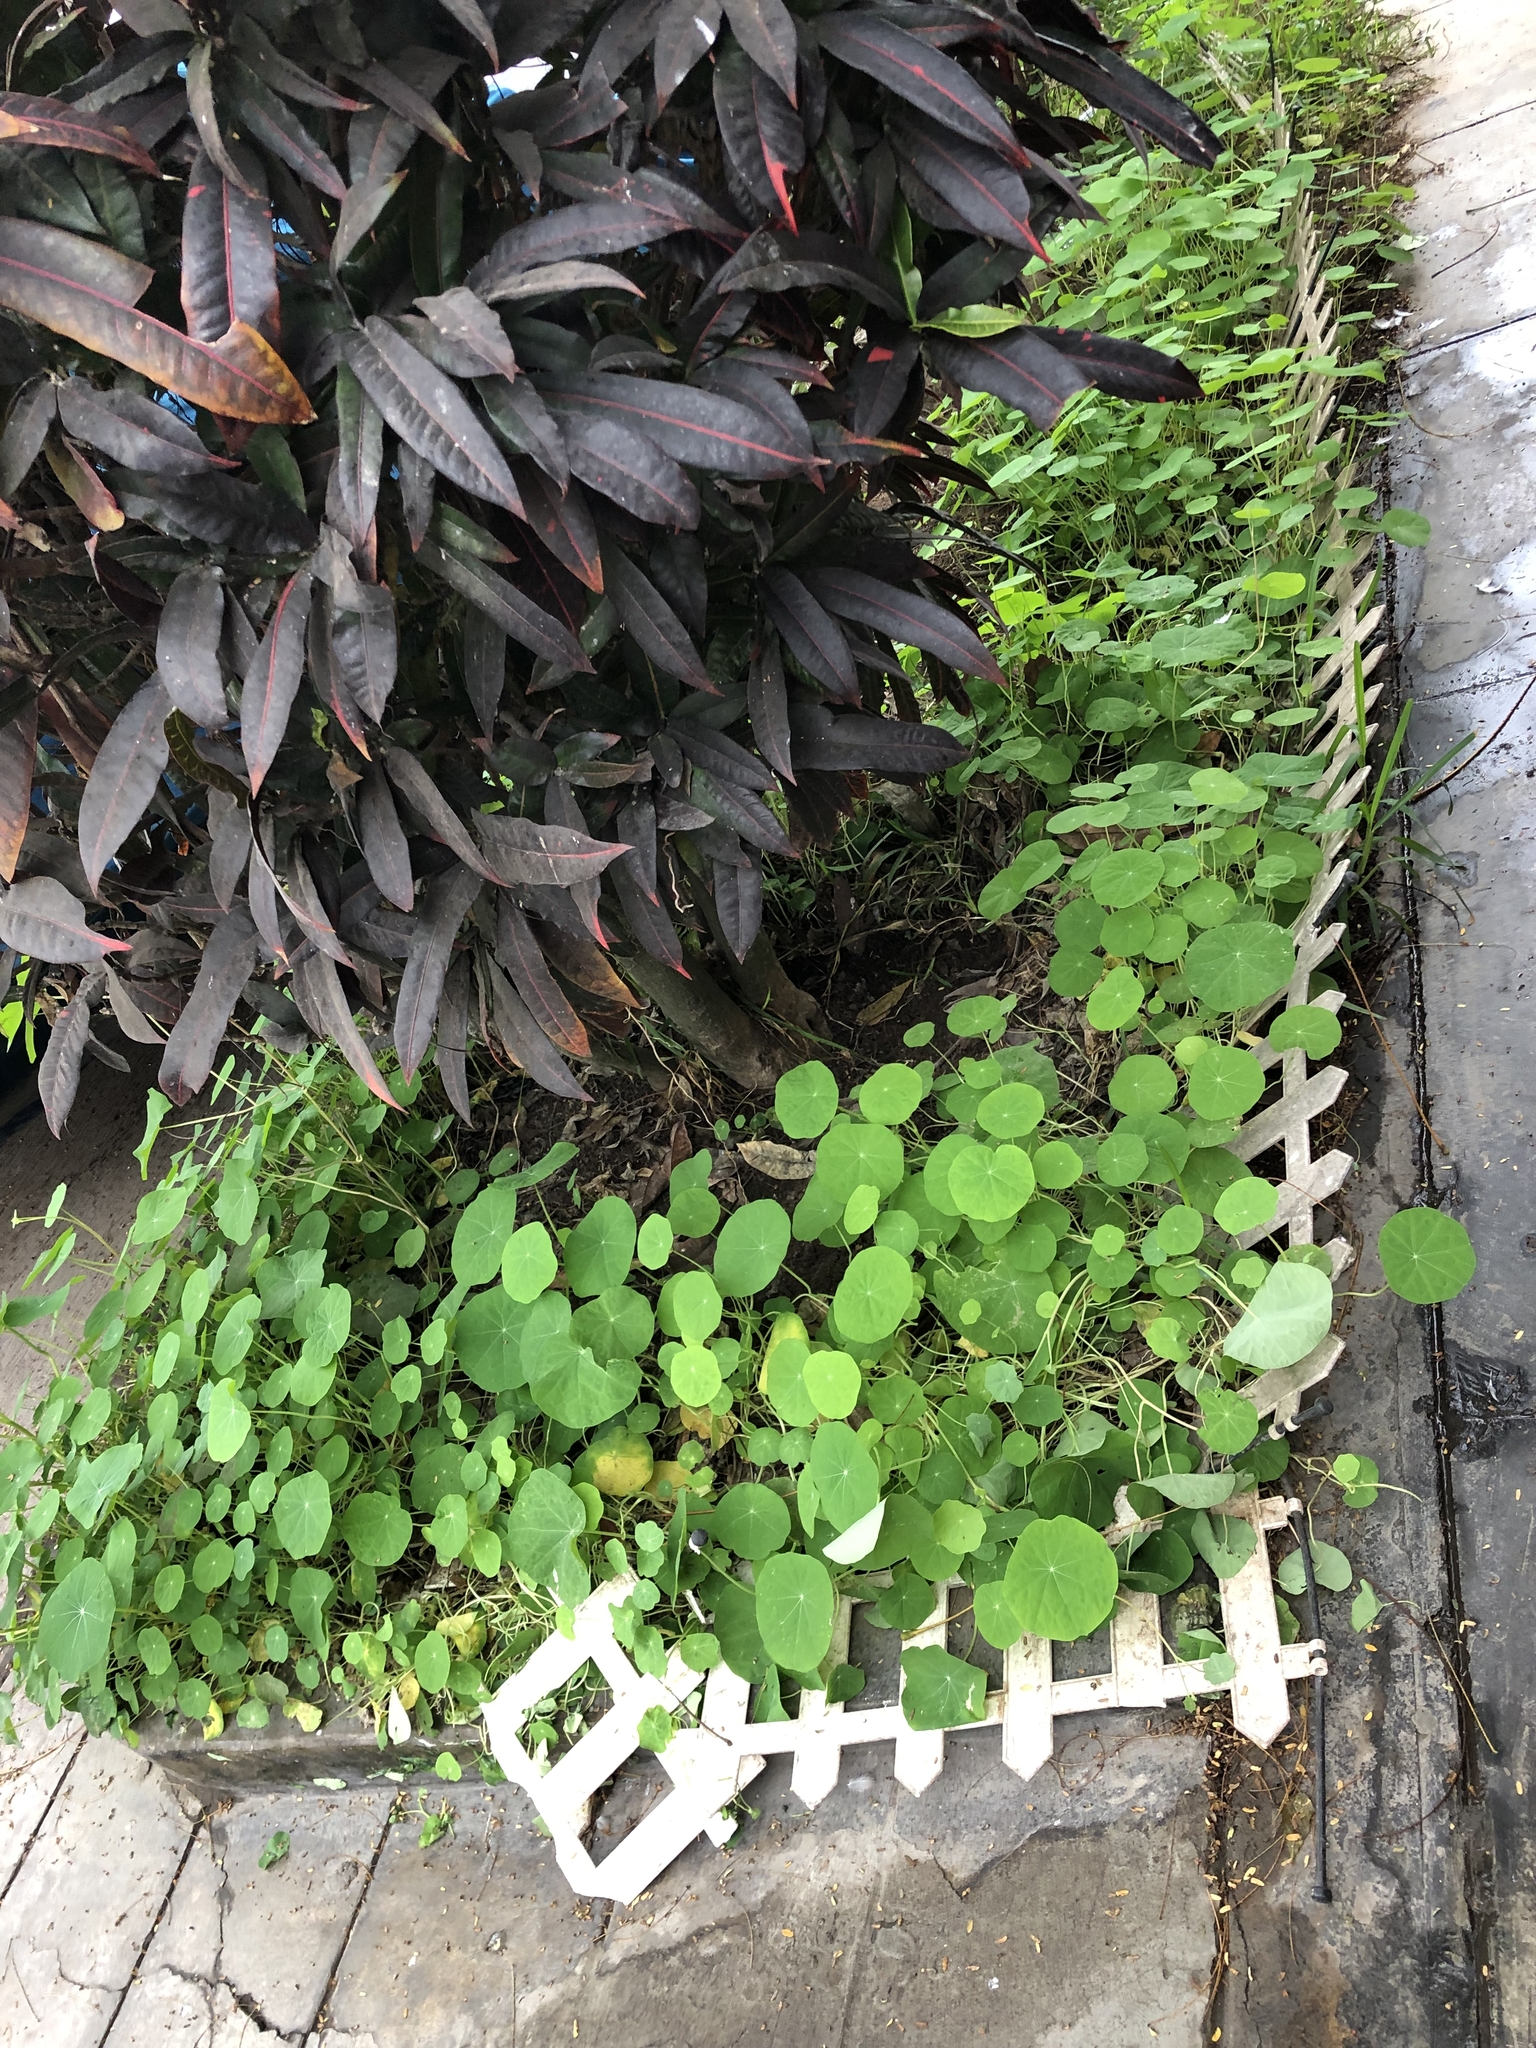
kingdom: Plantae
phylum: Tracheophyta
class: Magnoliopsida
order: Brassicales
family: Tropaeolaceae
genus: Tropaeolum
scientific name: Tropaeolum majus
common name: Nasturtium
